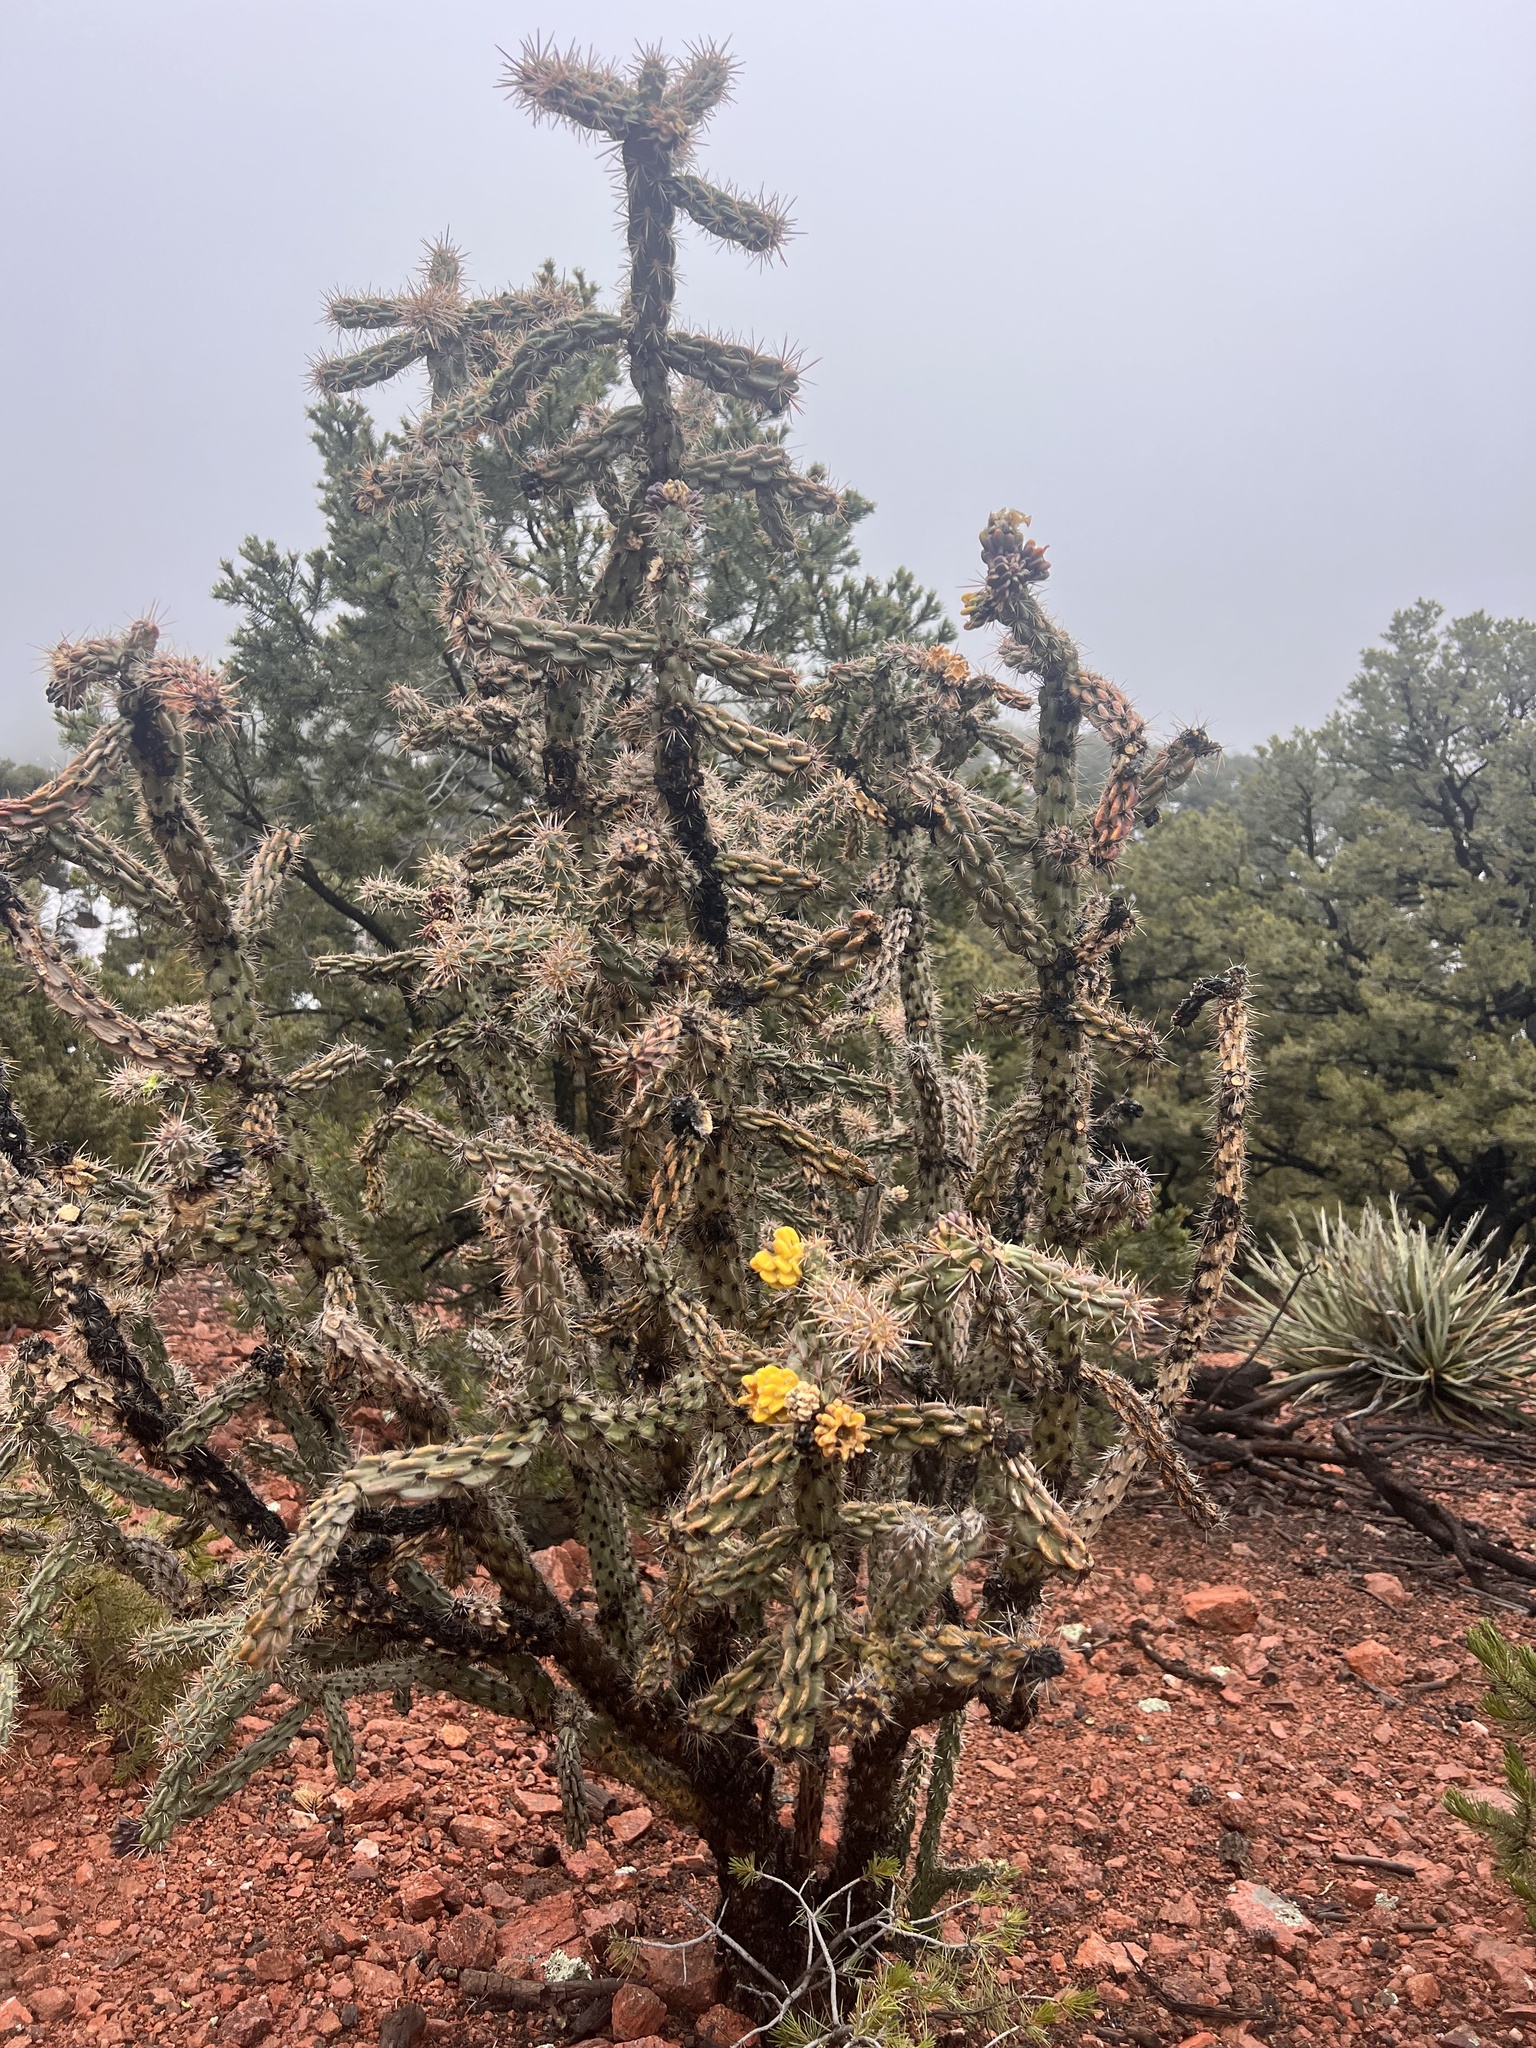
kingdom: Plantae
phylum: Tracheophyta
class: Magnoliopsida
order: Caryophyllales
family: Cactaceae
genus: Cylindropuntia
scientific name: Cylindropuntia imbricata
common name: Candelabrum cactus
